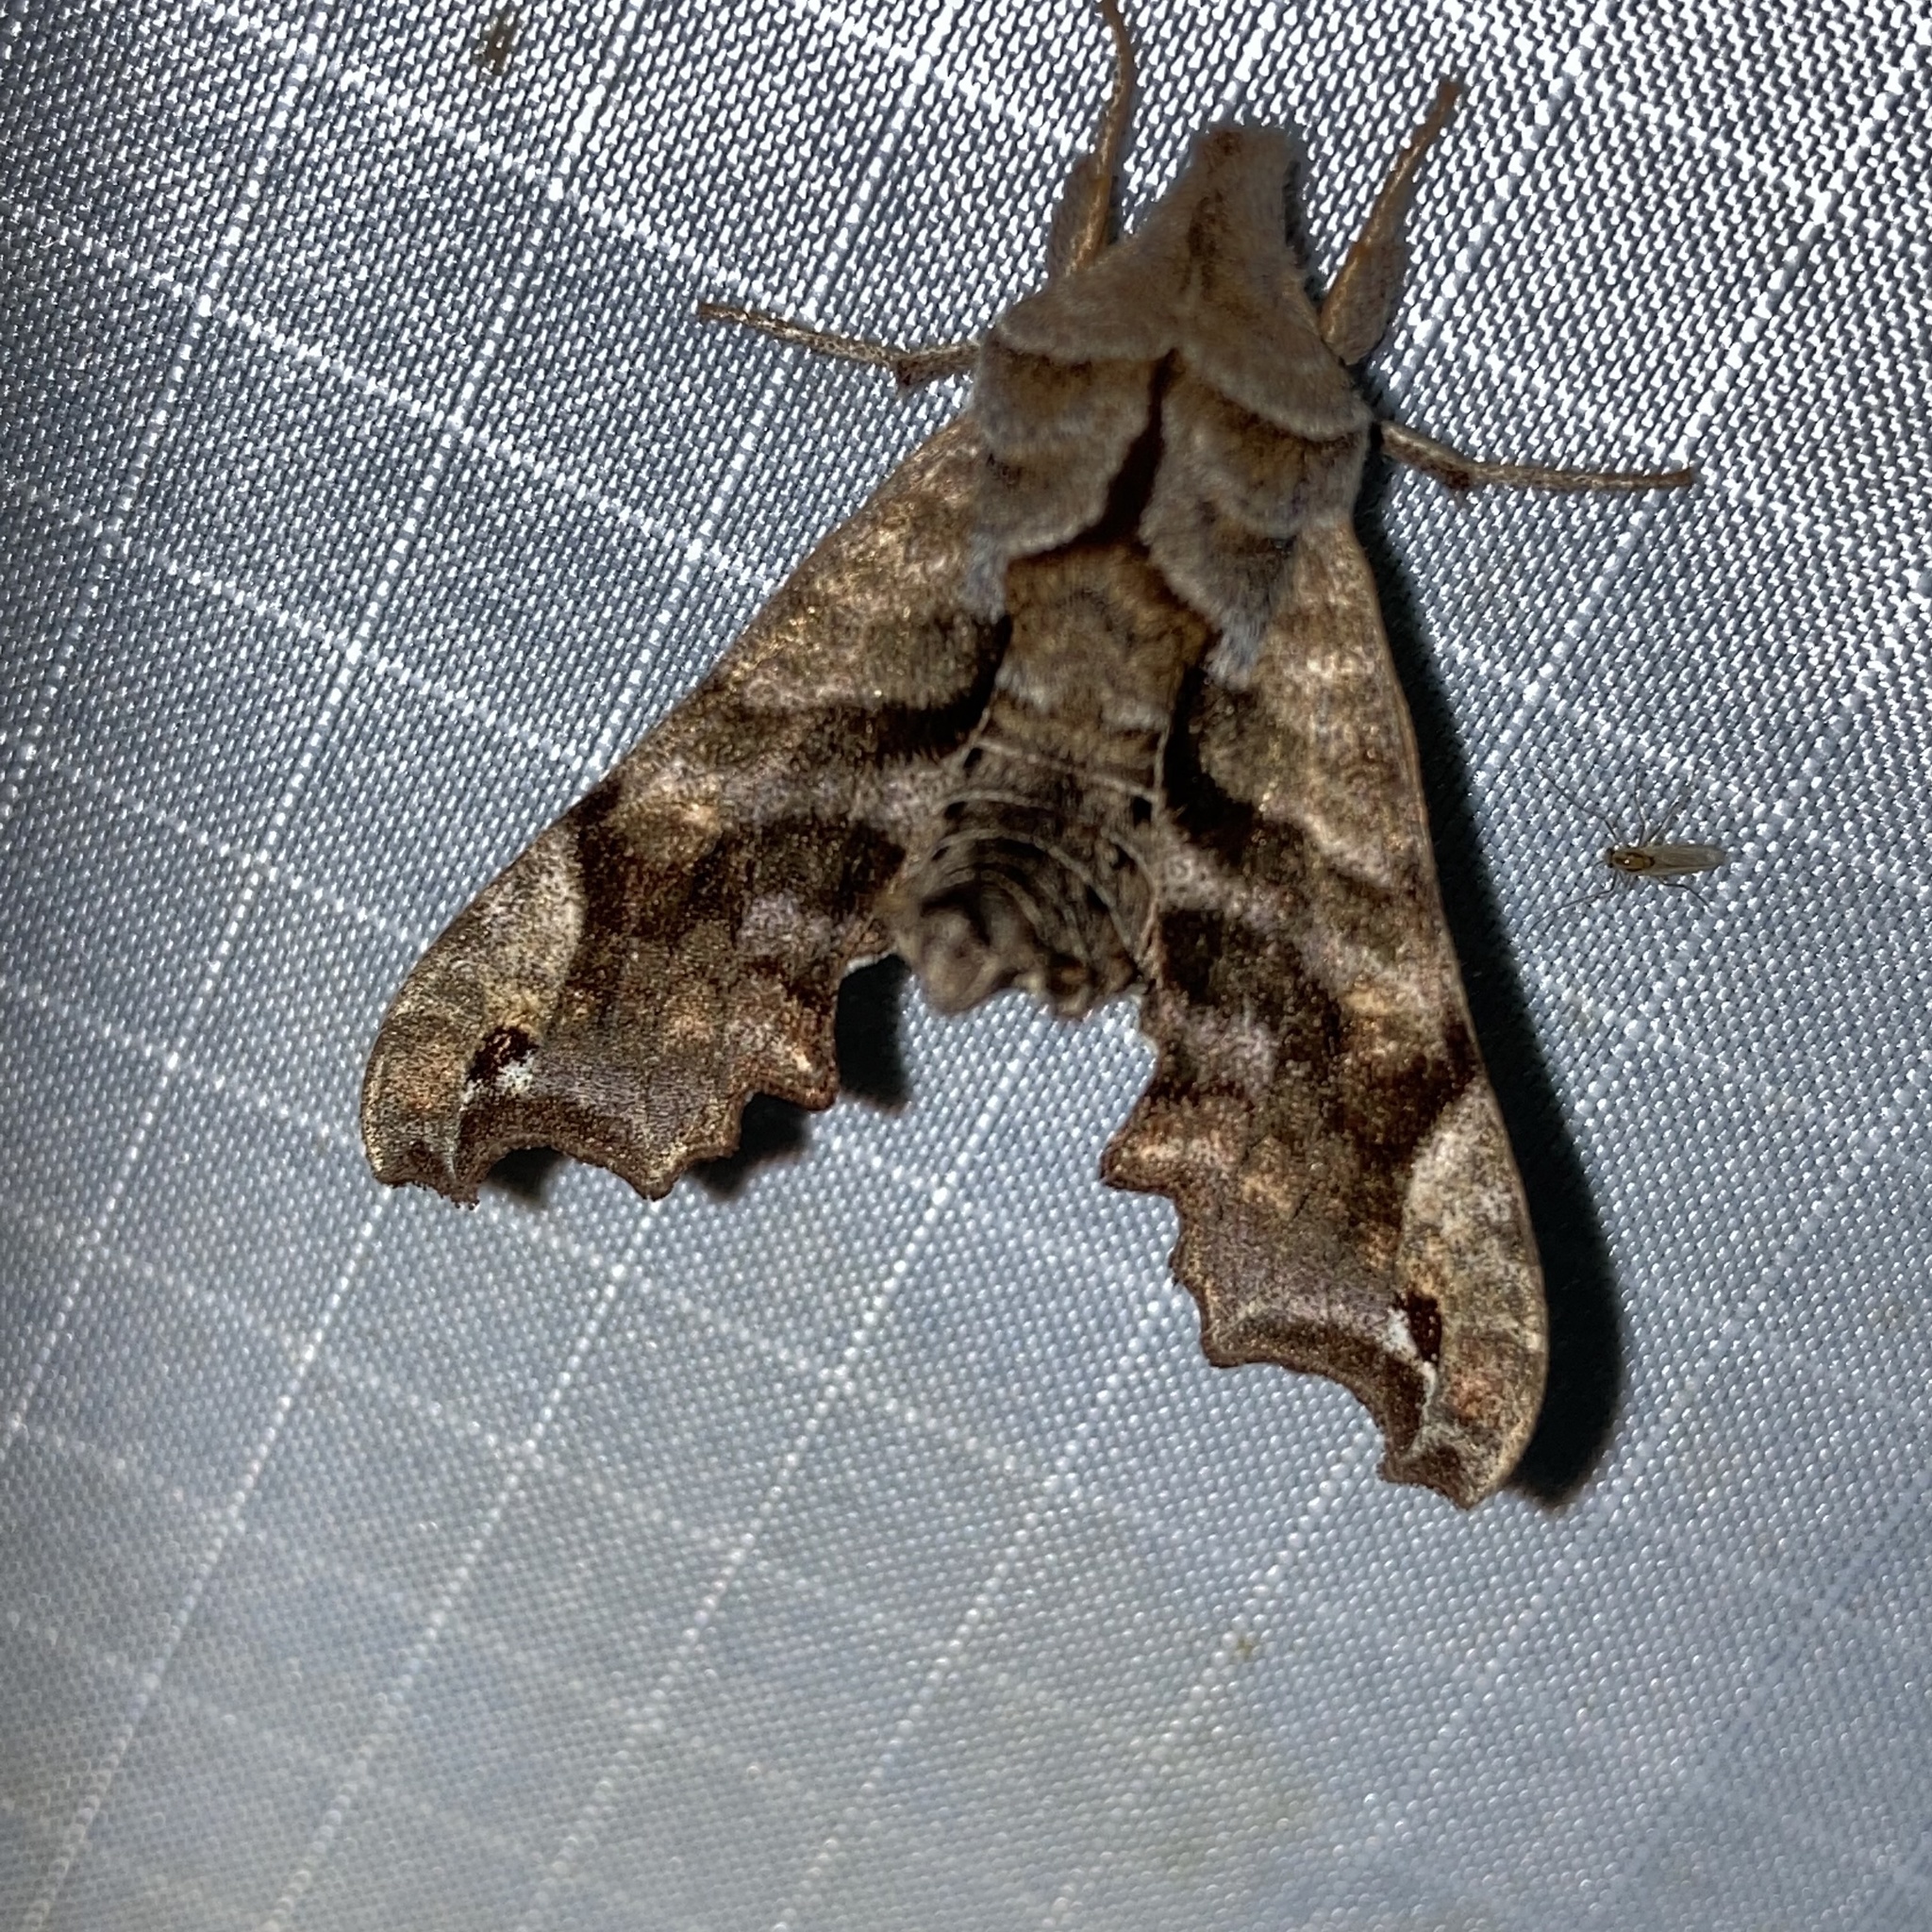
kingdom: Animalia
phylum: Arthropoda
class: Insecta
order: Lepidoptera
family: Sphingidae
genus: Deidamia
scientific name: Deidamia inscriptum
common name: Lettered sphinx
